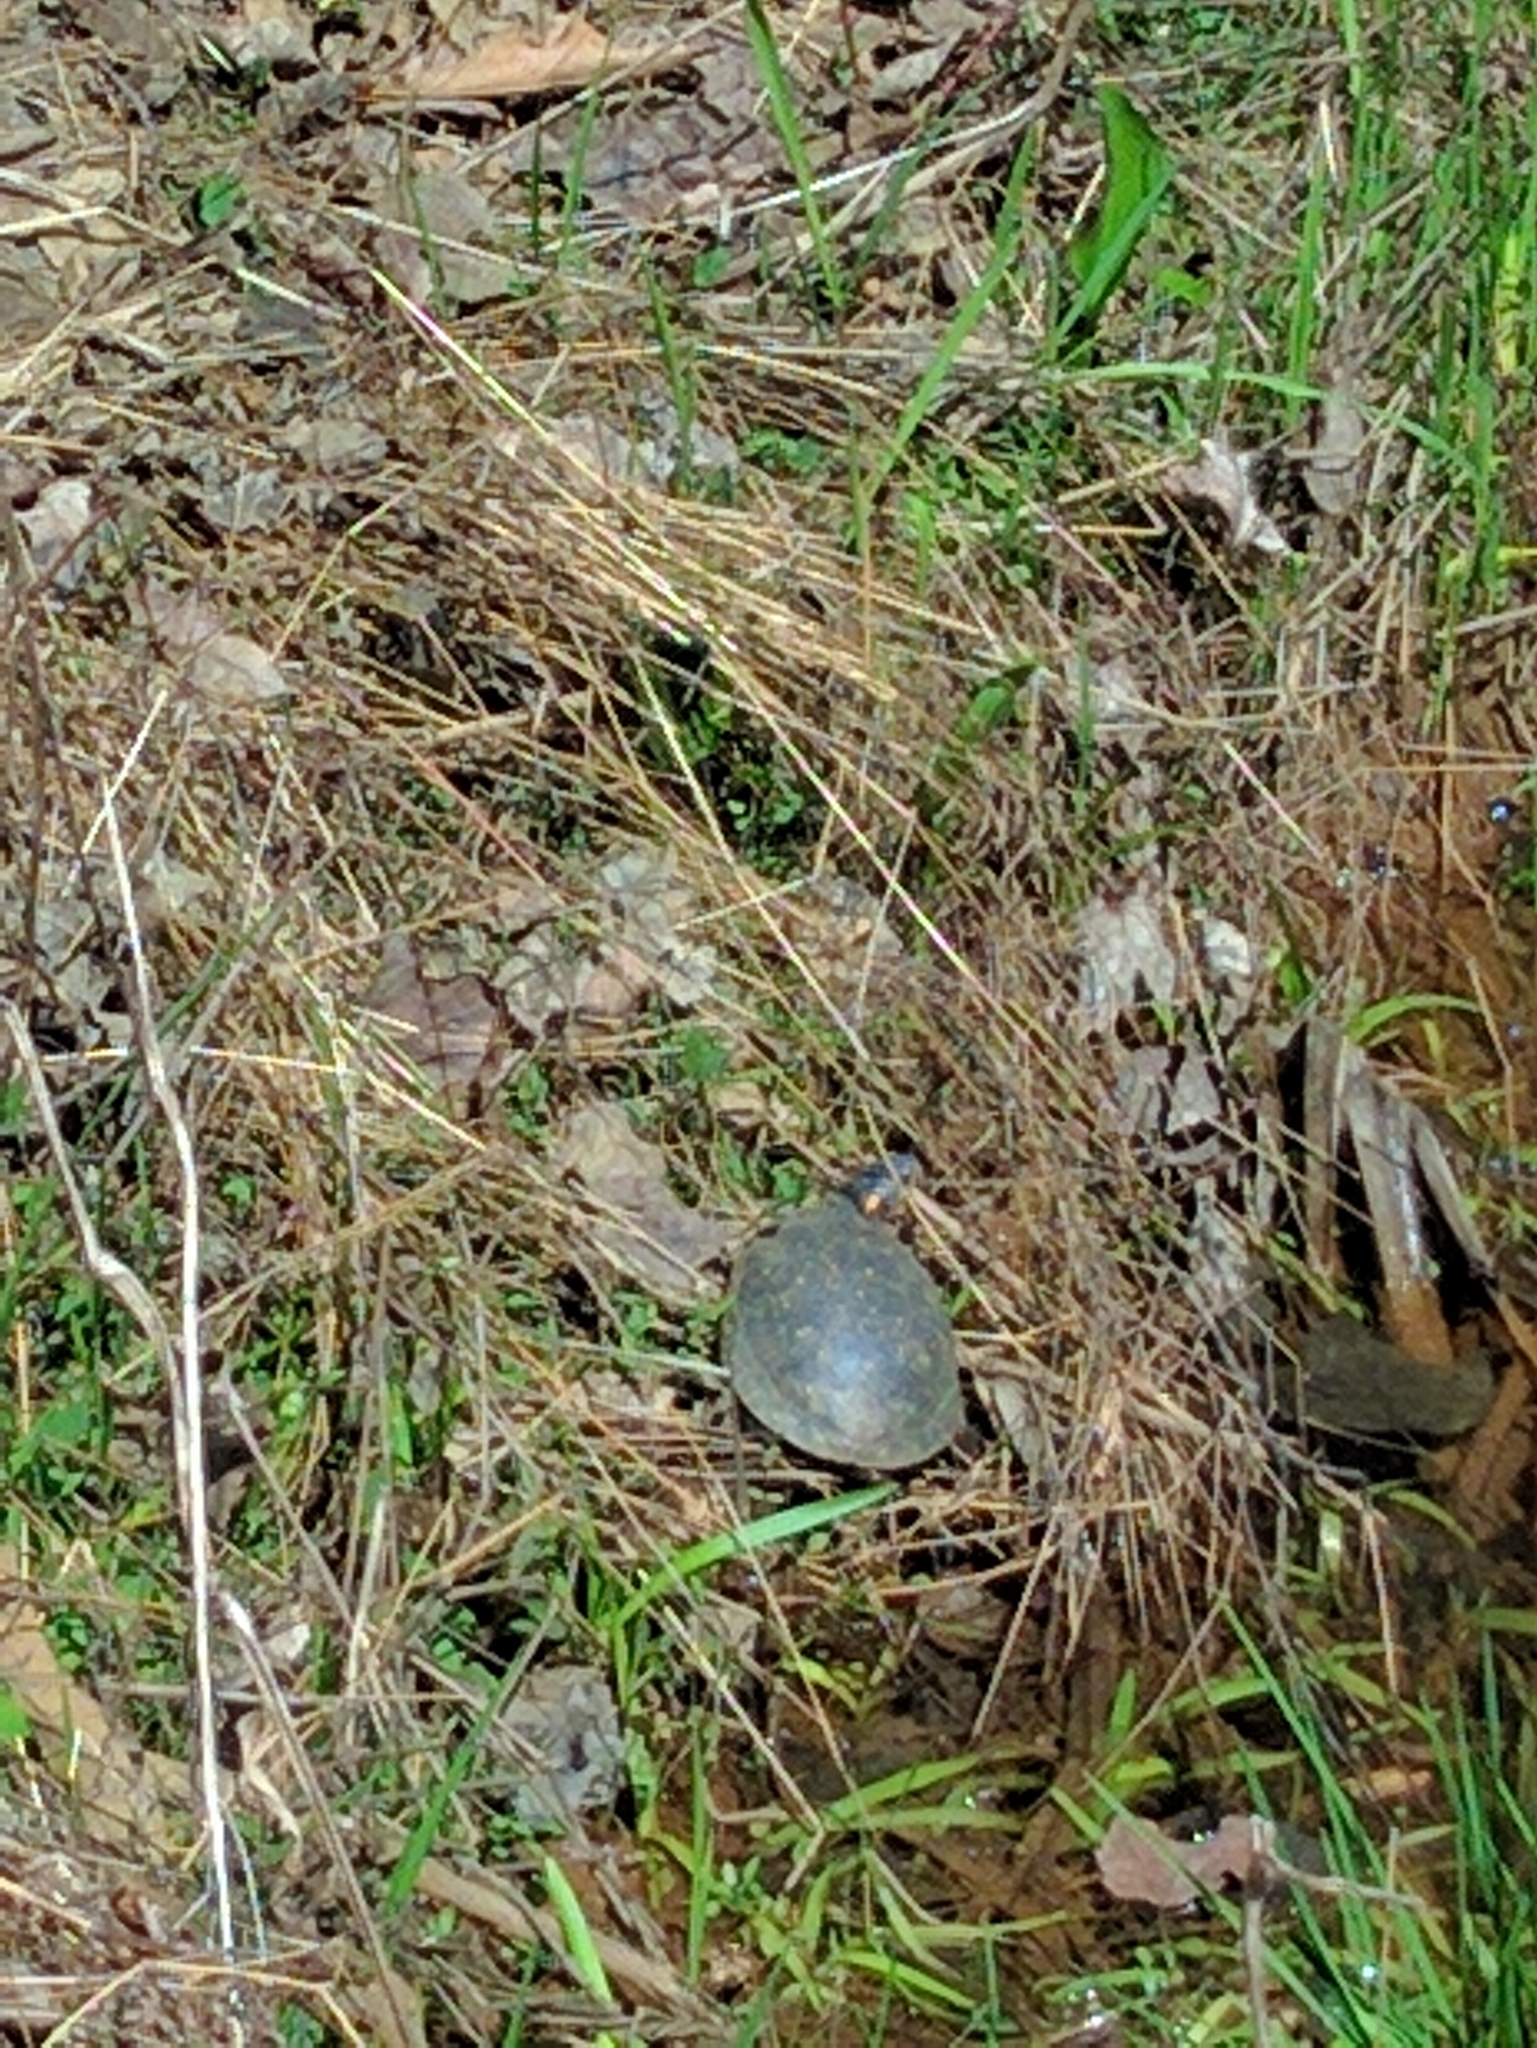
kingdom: Animalia
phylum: Chordata
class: Testudines
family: Emydidae
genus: Clemmys
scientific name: Clemmys guttata
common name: Spotted turtle
